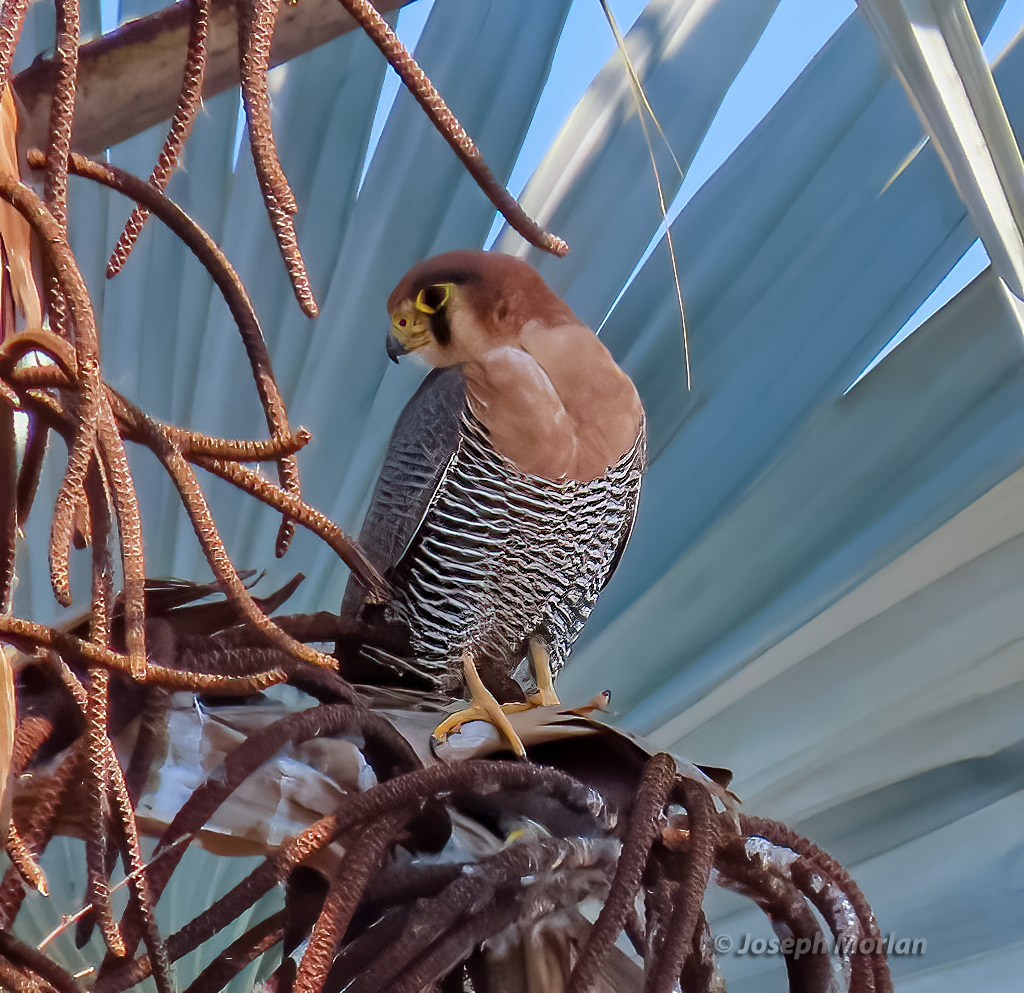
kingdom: Animalia
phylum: Chordata
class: Aves
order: Falconiformes
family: Falconidae
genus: Falco
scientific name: Falco chicquera
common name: Red-necked falcon
